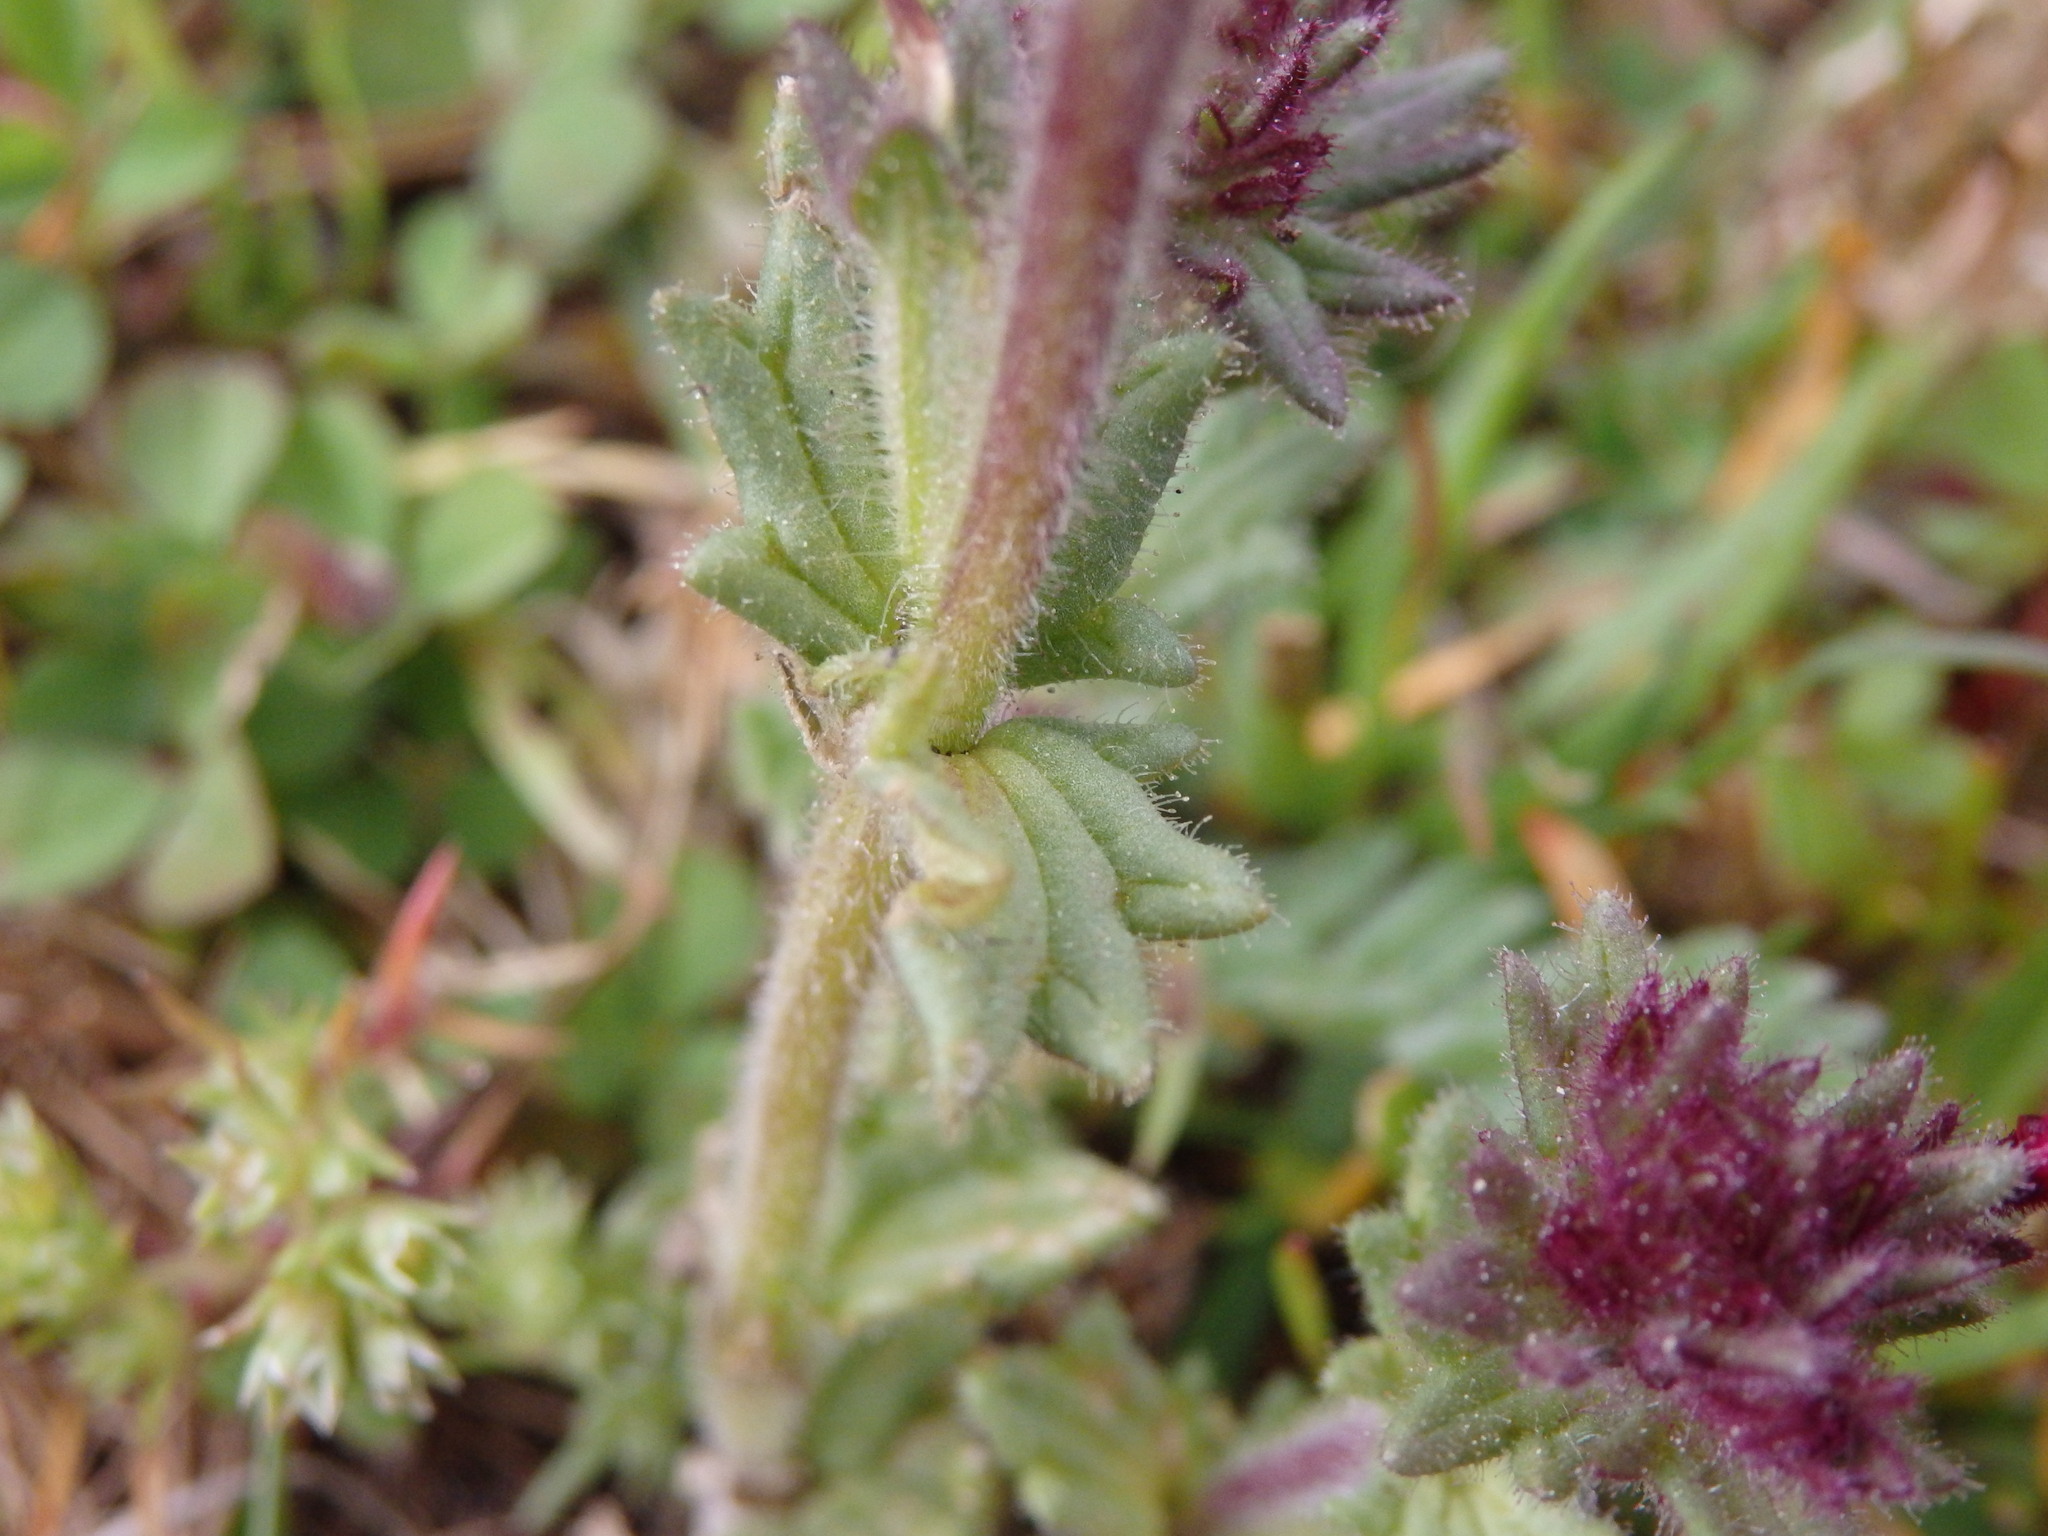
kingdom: Plantae
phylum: Tracheophyta
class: Magnoliopsida
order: Lamiales
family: Orobanchaceae
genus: Parentucellia
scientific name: Parentucellia latifolia
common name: Broadleaf glandweed
